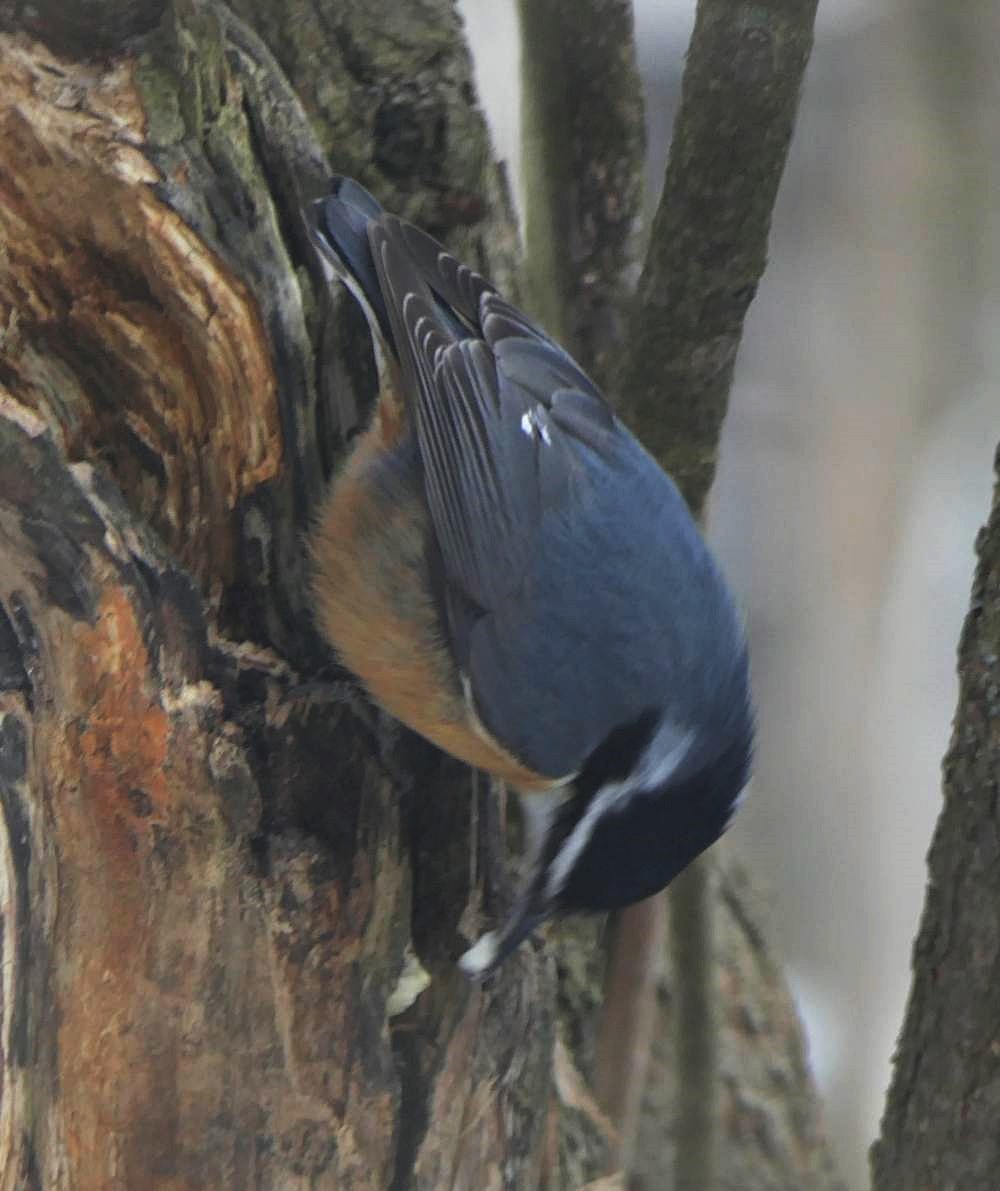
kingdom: Animalia
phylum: Chordata
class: Aves
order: Passeriformes
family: Sittidae
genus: Sitta
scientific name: Sitta canadensis
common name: Red-breasted nuthatch
